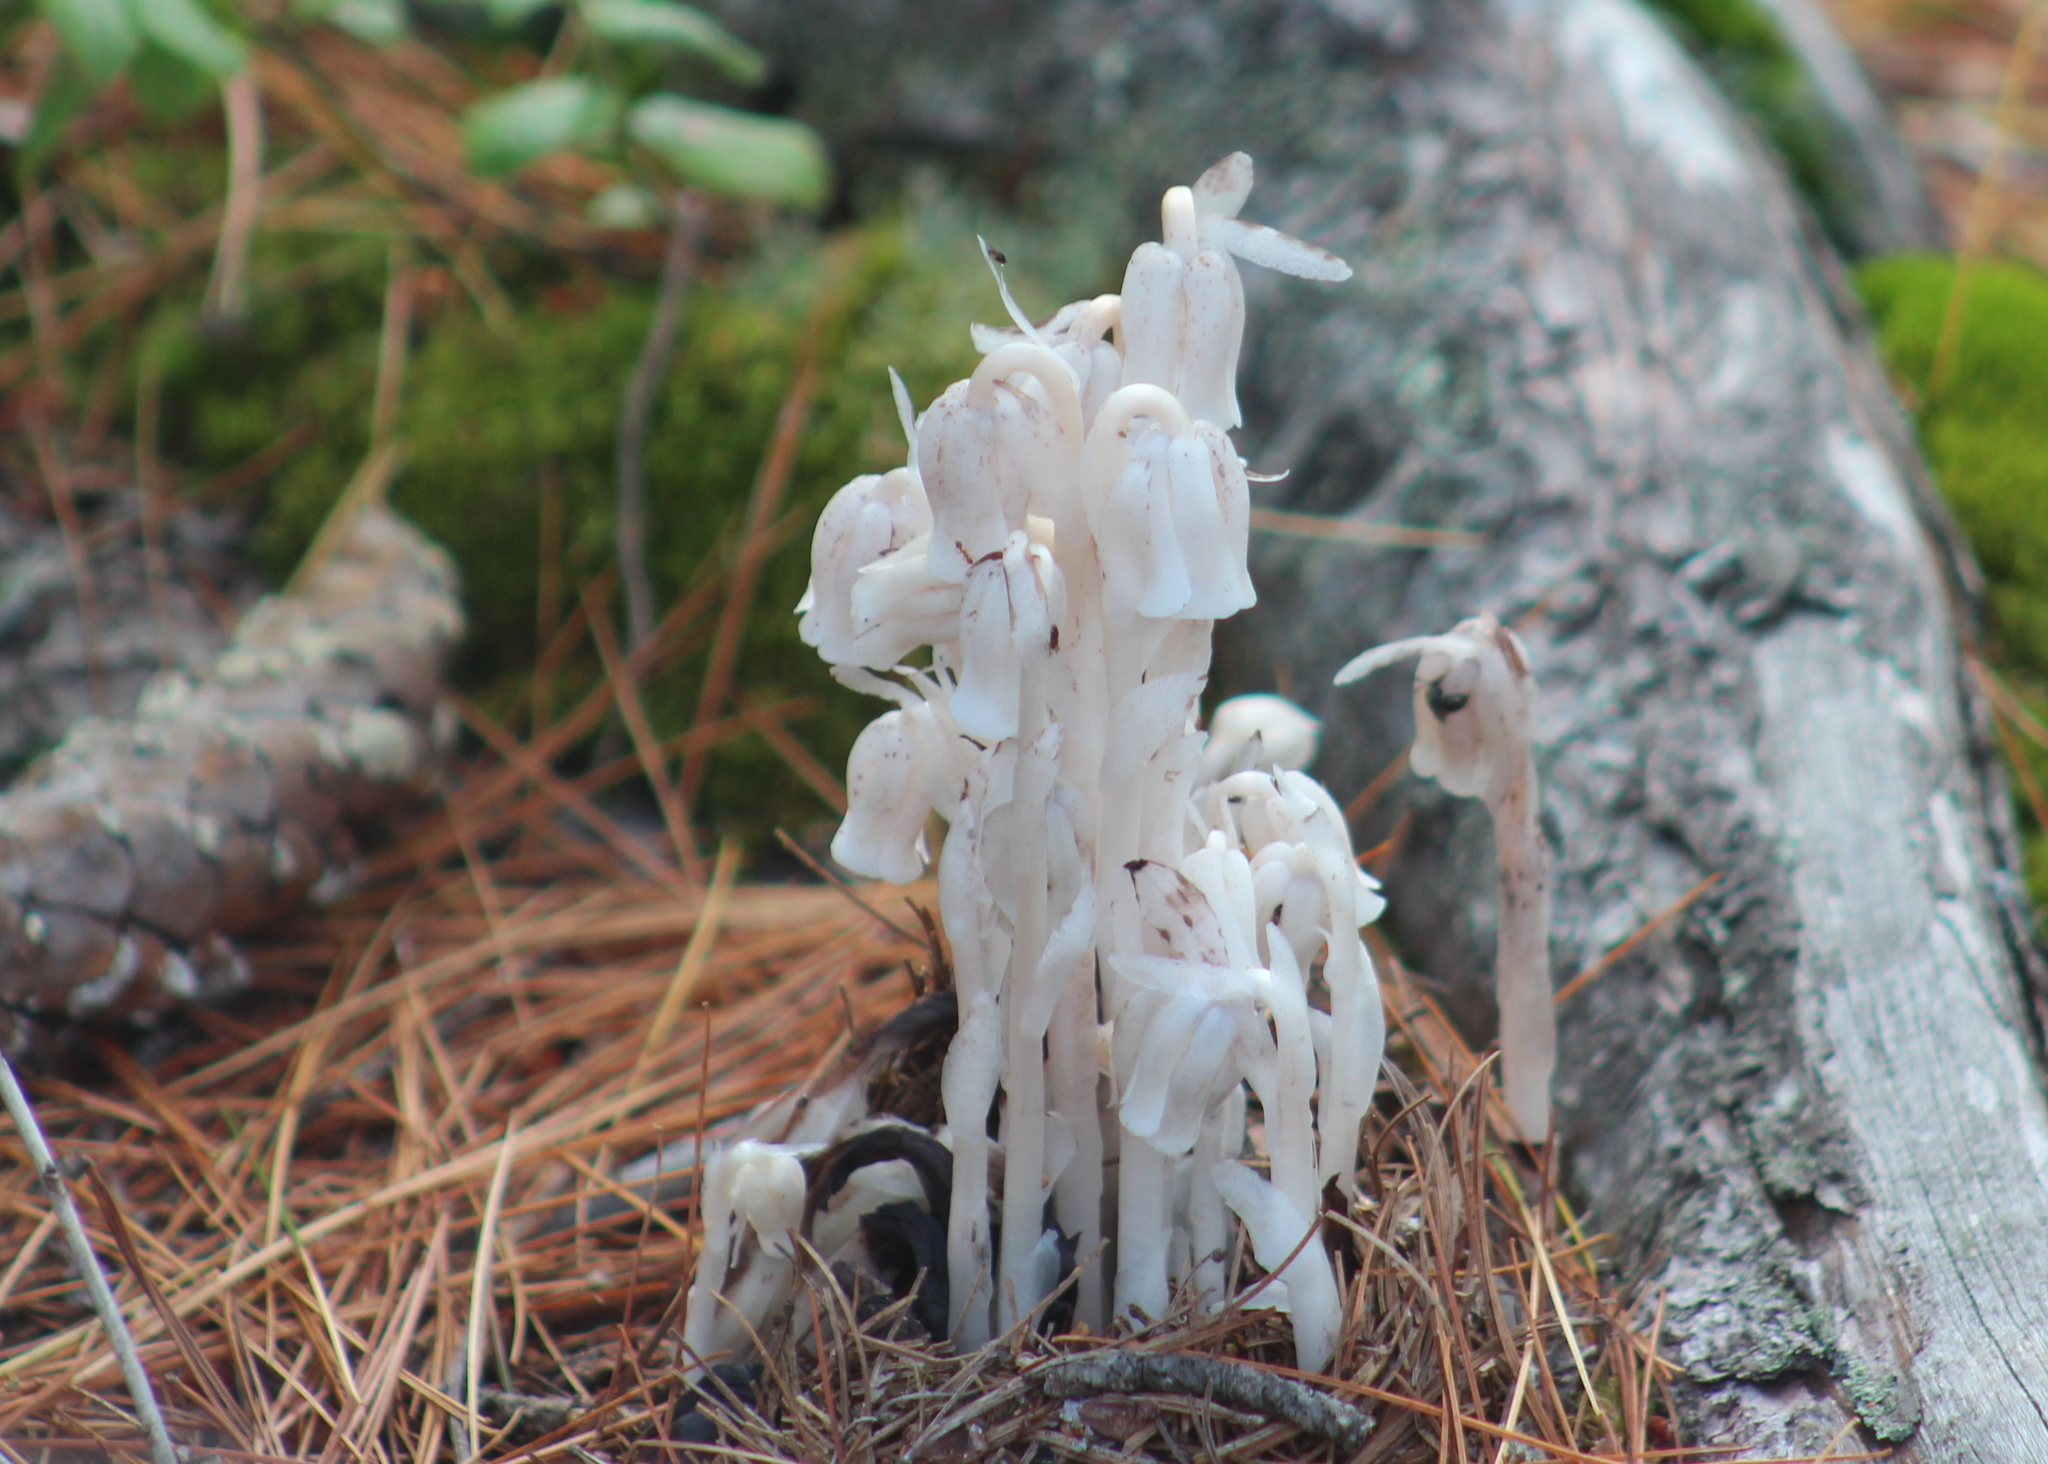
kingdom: Plantae
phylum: Tracheophyta
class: Magnoliopsida
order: Ericales
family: Ericaceae
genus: Monotropa
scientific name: Monotropa uniflora
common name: Convulsion root
